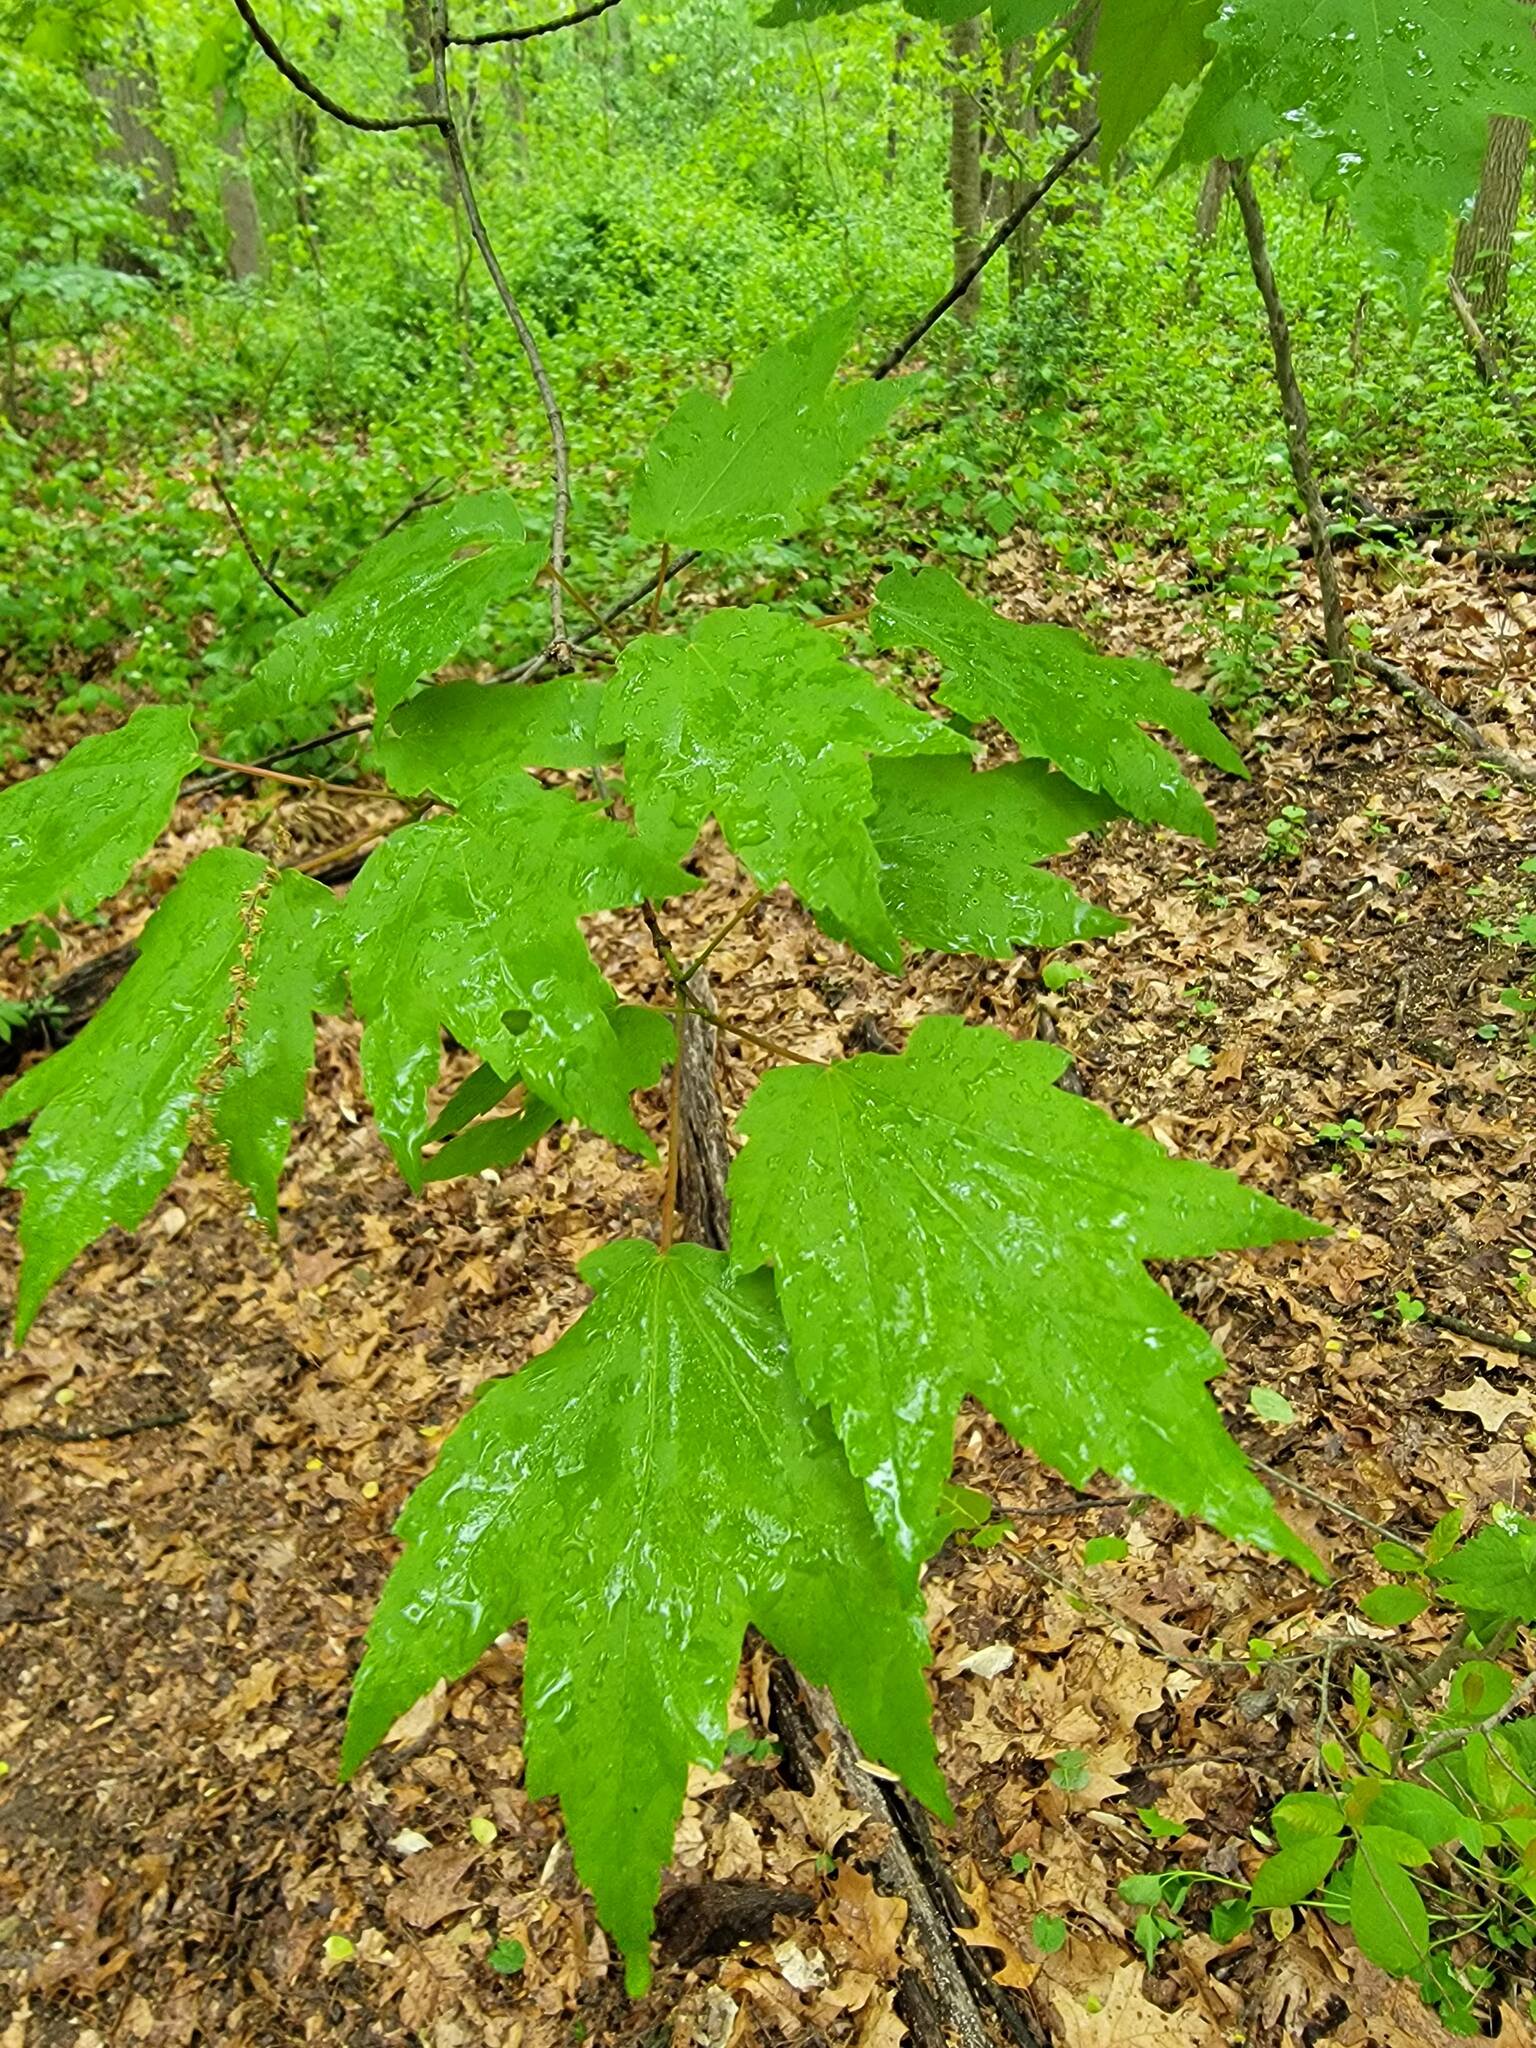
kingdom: Plantae
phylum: Tracheophyta
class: Magnoliopsida
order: Sapindales
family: Sapindaceae
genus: Acer
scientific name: Acer rubrum
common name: Red maple
